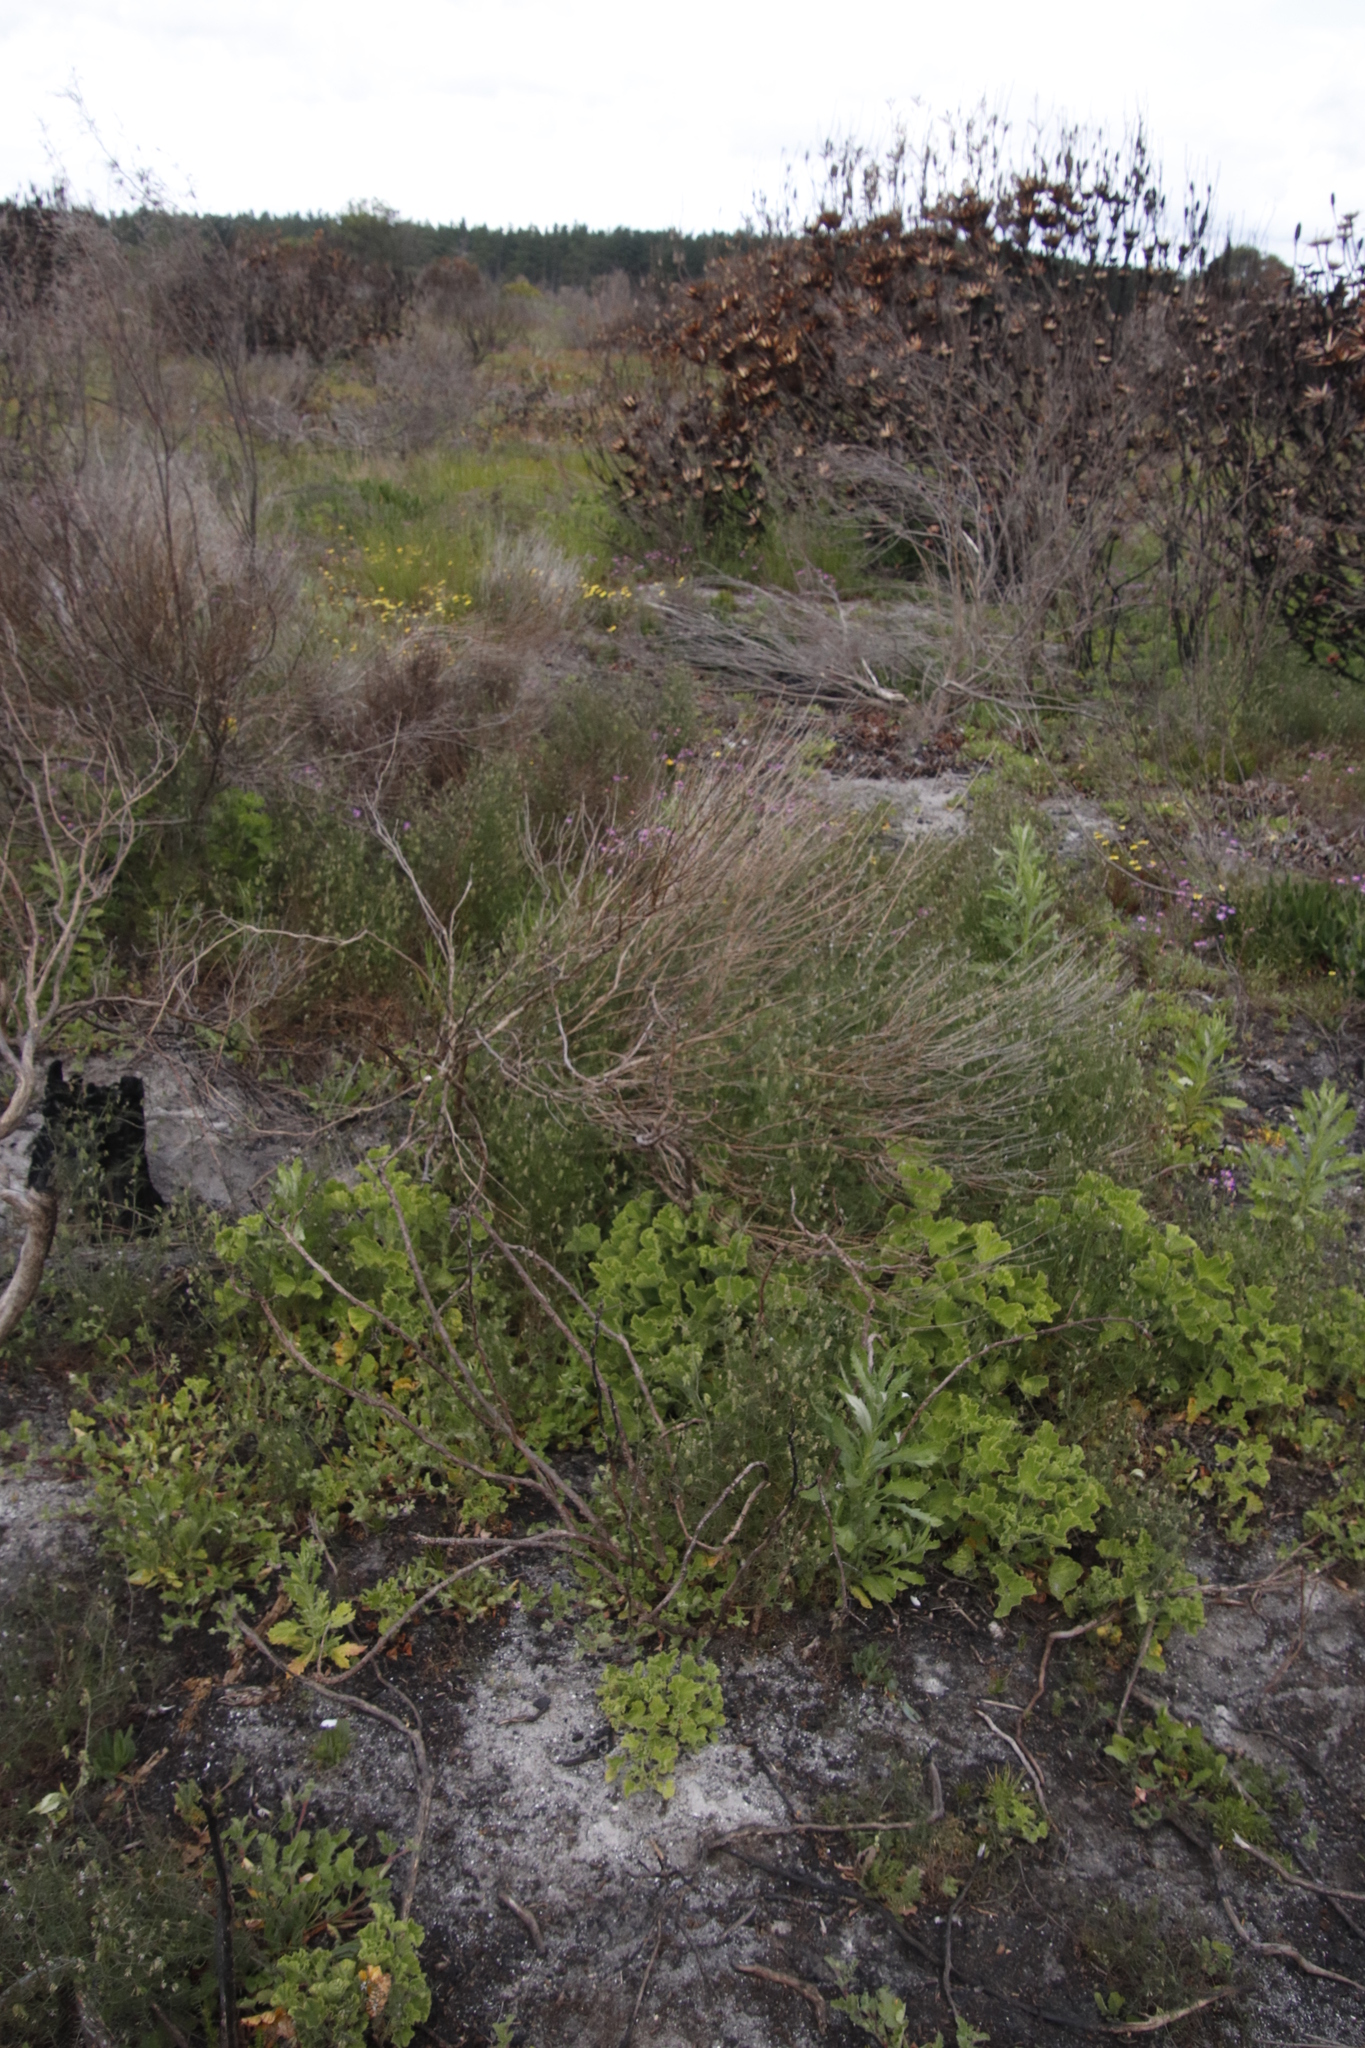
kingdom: Plantae
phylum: Tracheophyta
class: Magnoliopsida
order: Geraniales
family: Geraniaceae
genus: Pelargonium
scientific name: Pelargonium capitatum
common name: Rose scented geranium
